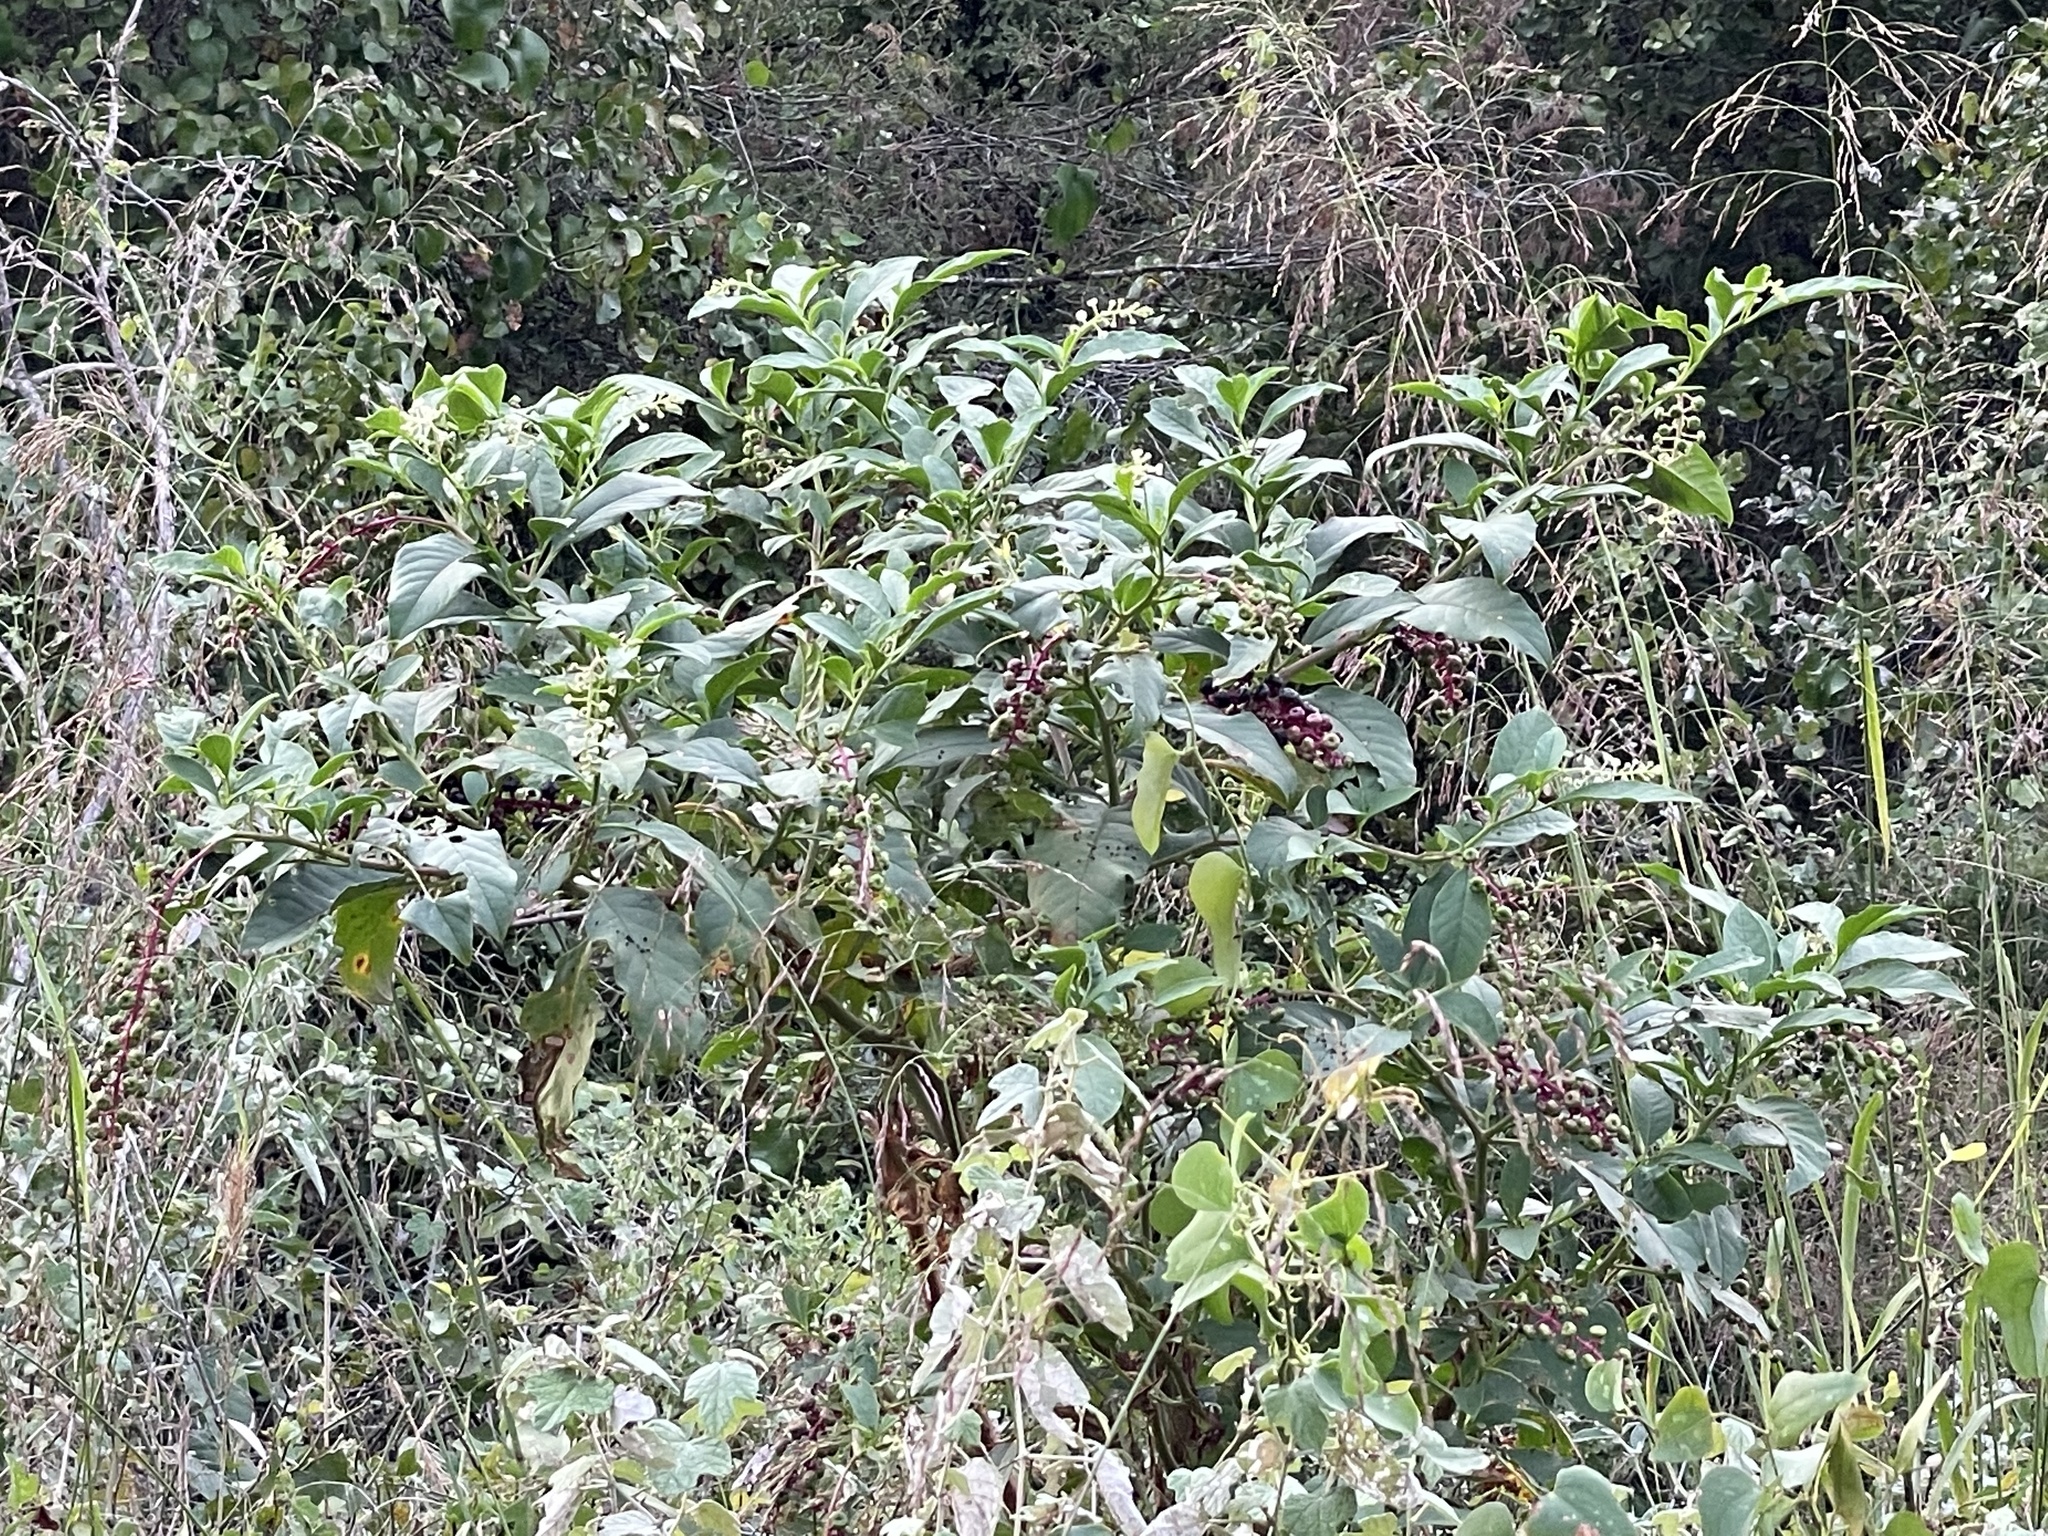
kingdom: Plantae
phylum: Tracheophyta
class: Magnoliopsida
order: Caryophyllales
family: Phytolaccaceae
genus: Phytolacca
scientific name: Phytolacca americana
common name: American pokeweed
